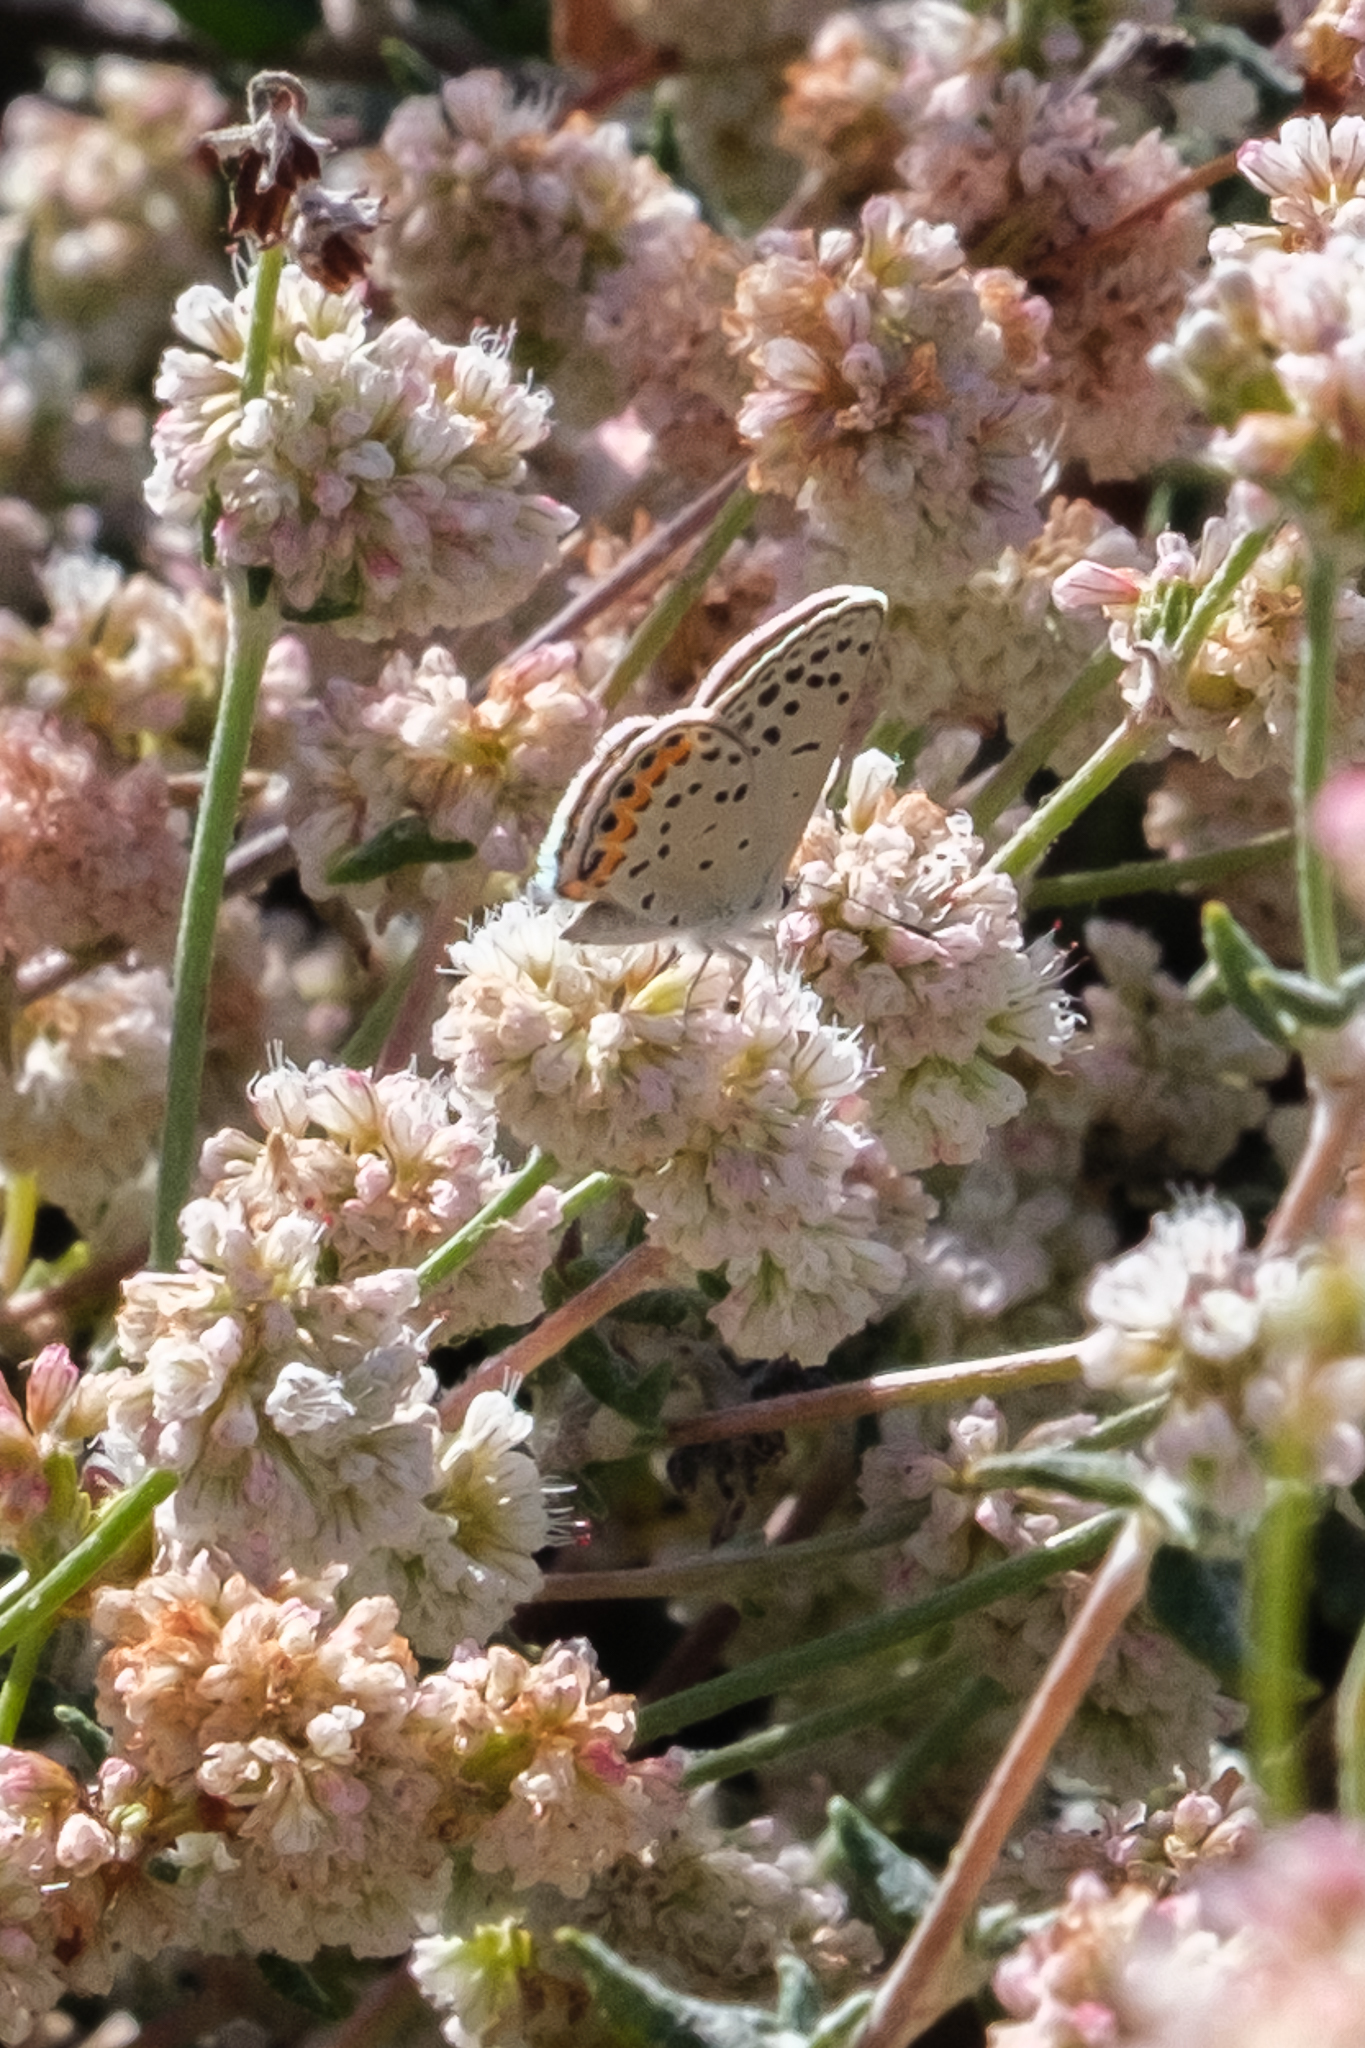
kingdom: Animalia
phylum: Arthropoda
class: Insecta
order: Lepidoptera
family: Lycaenidae
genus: Icaricia
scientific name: Icaricia acmon
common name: Acmon blue
